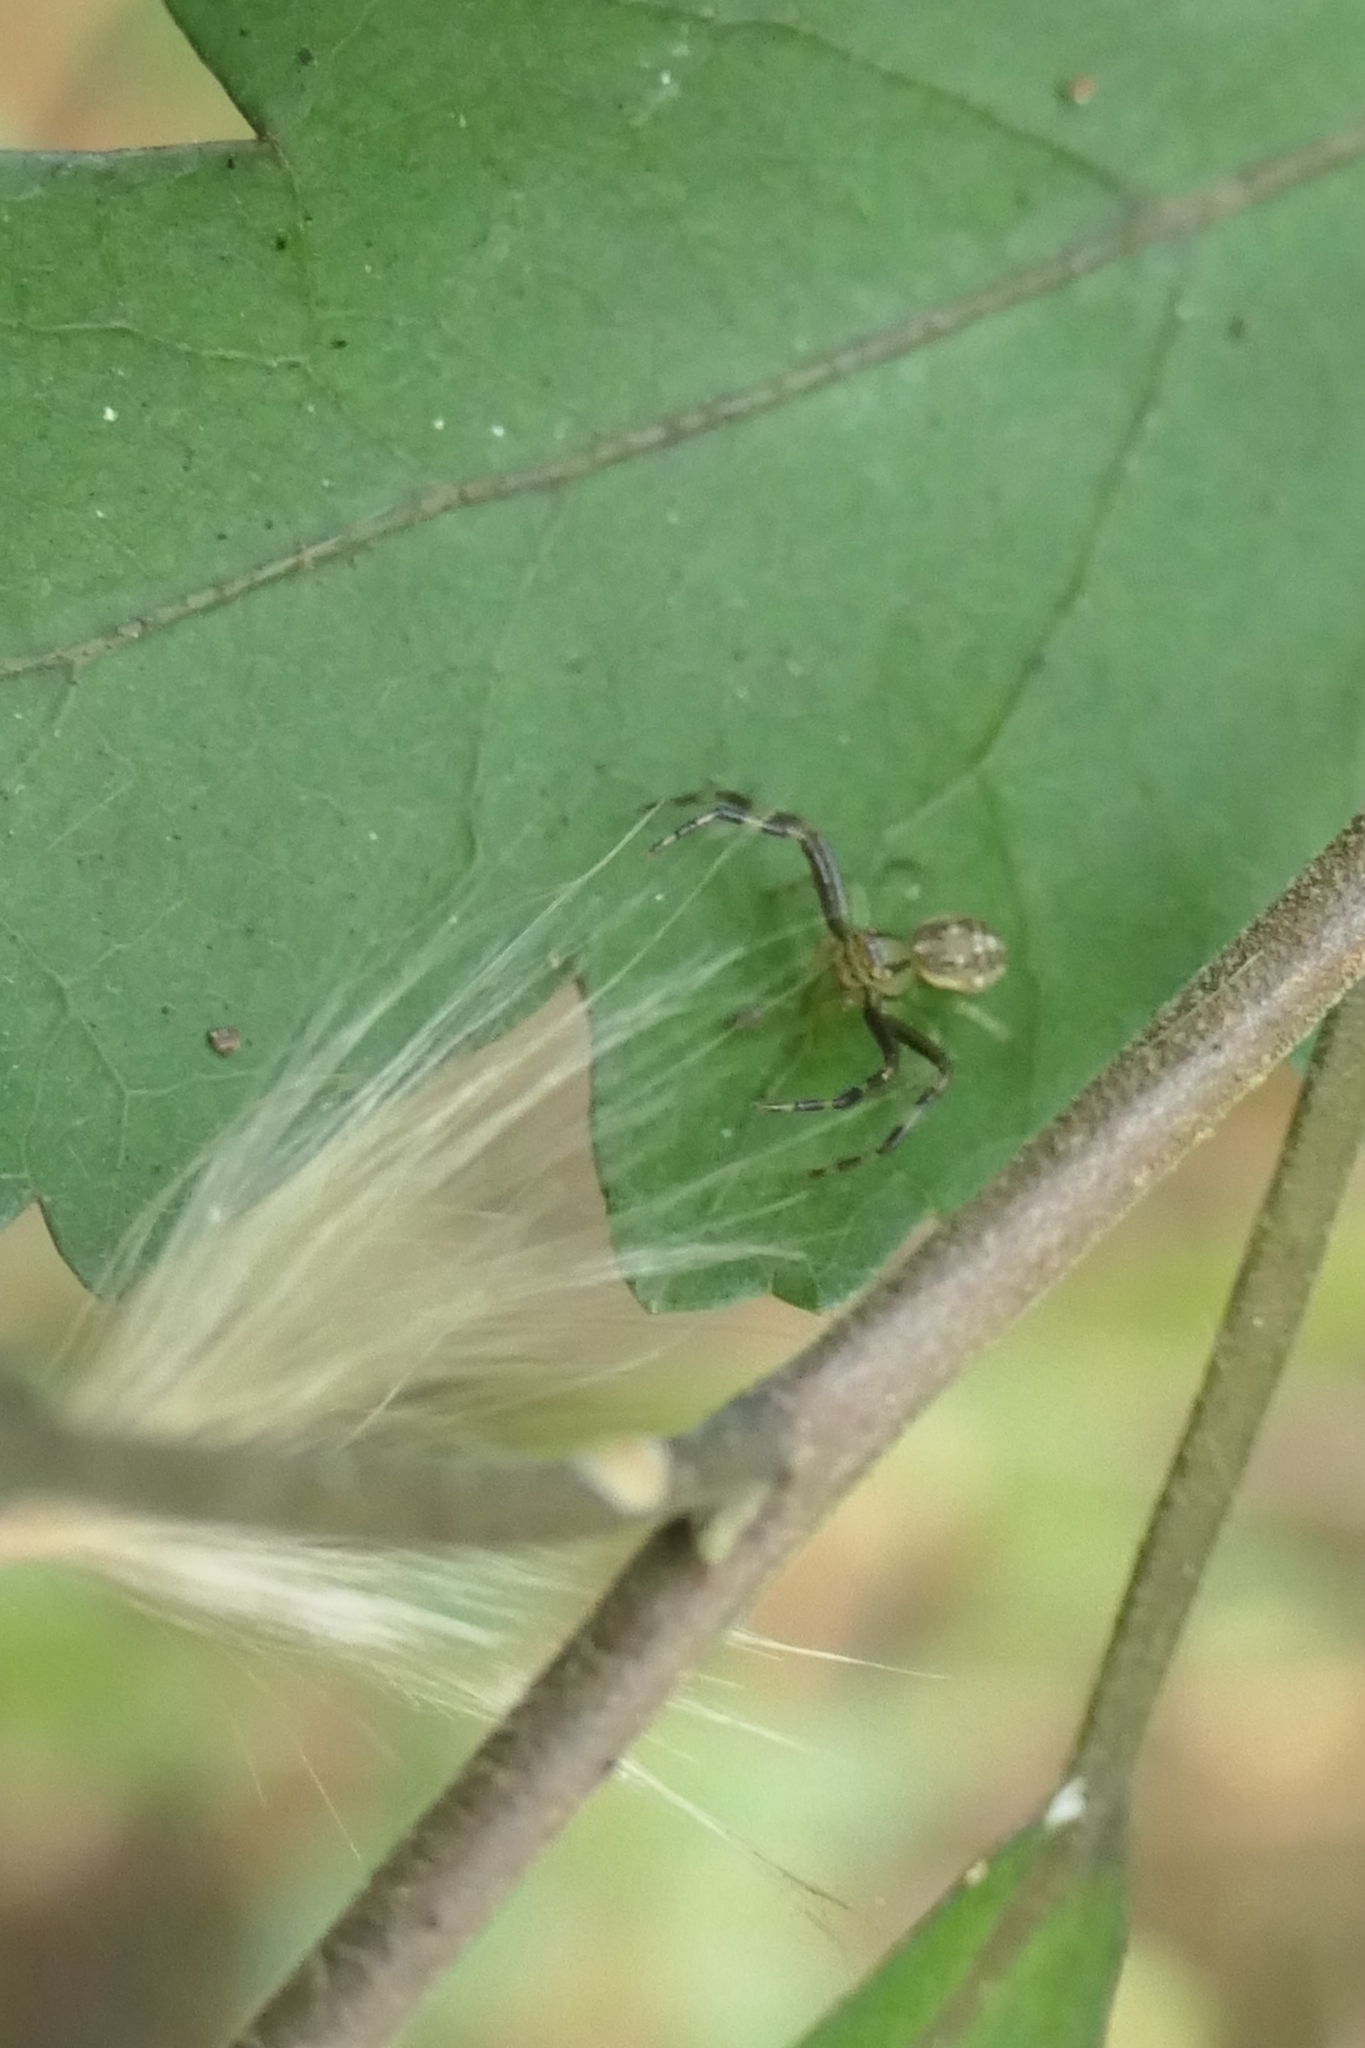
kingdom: Animalia
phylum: Arthropoda
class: Arachnida
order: Araneae
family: Thomisidae
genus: Diaea
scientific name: Diaea ambara
